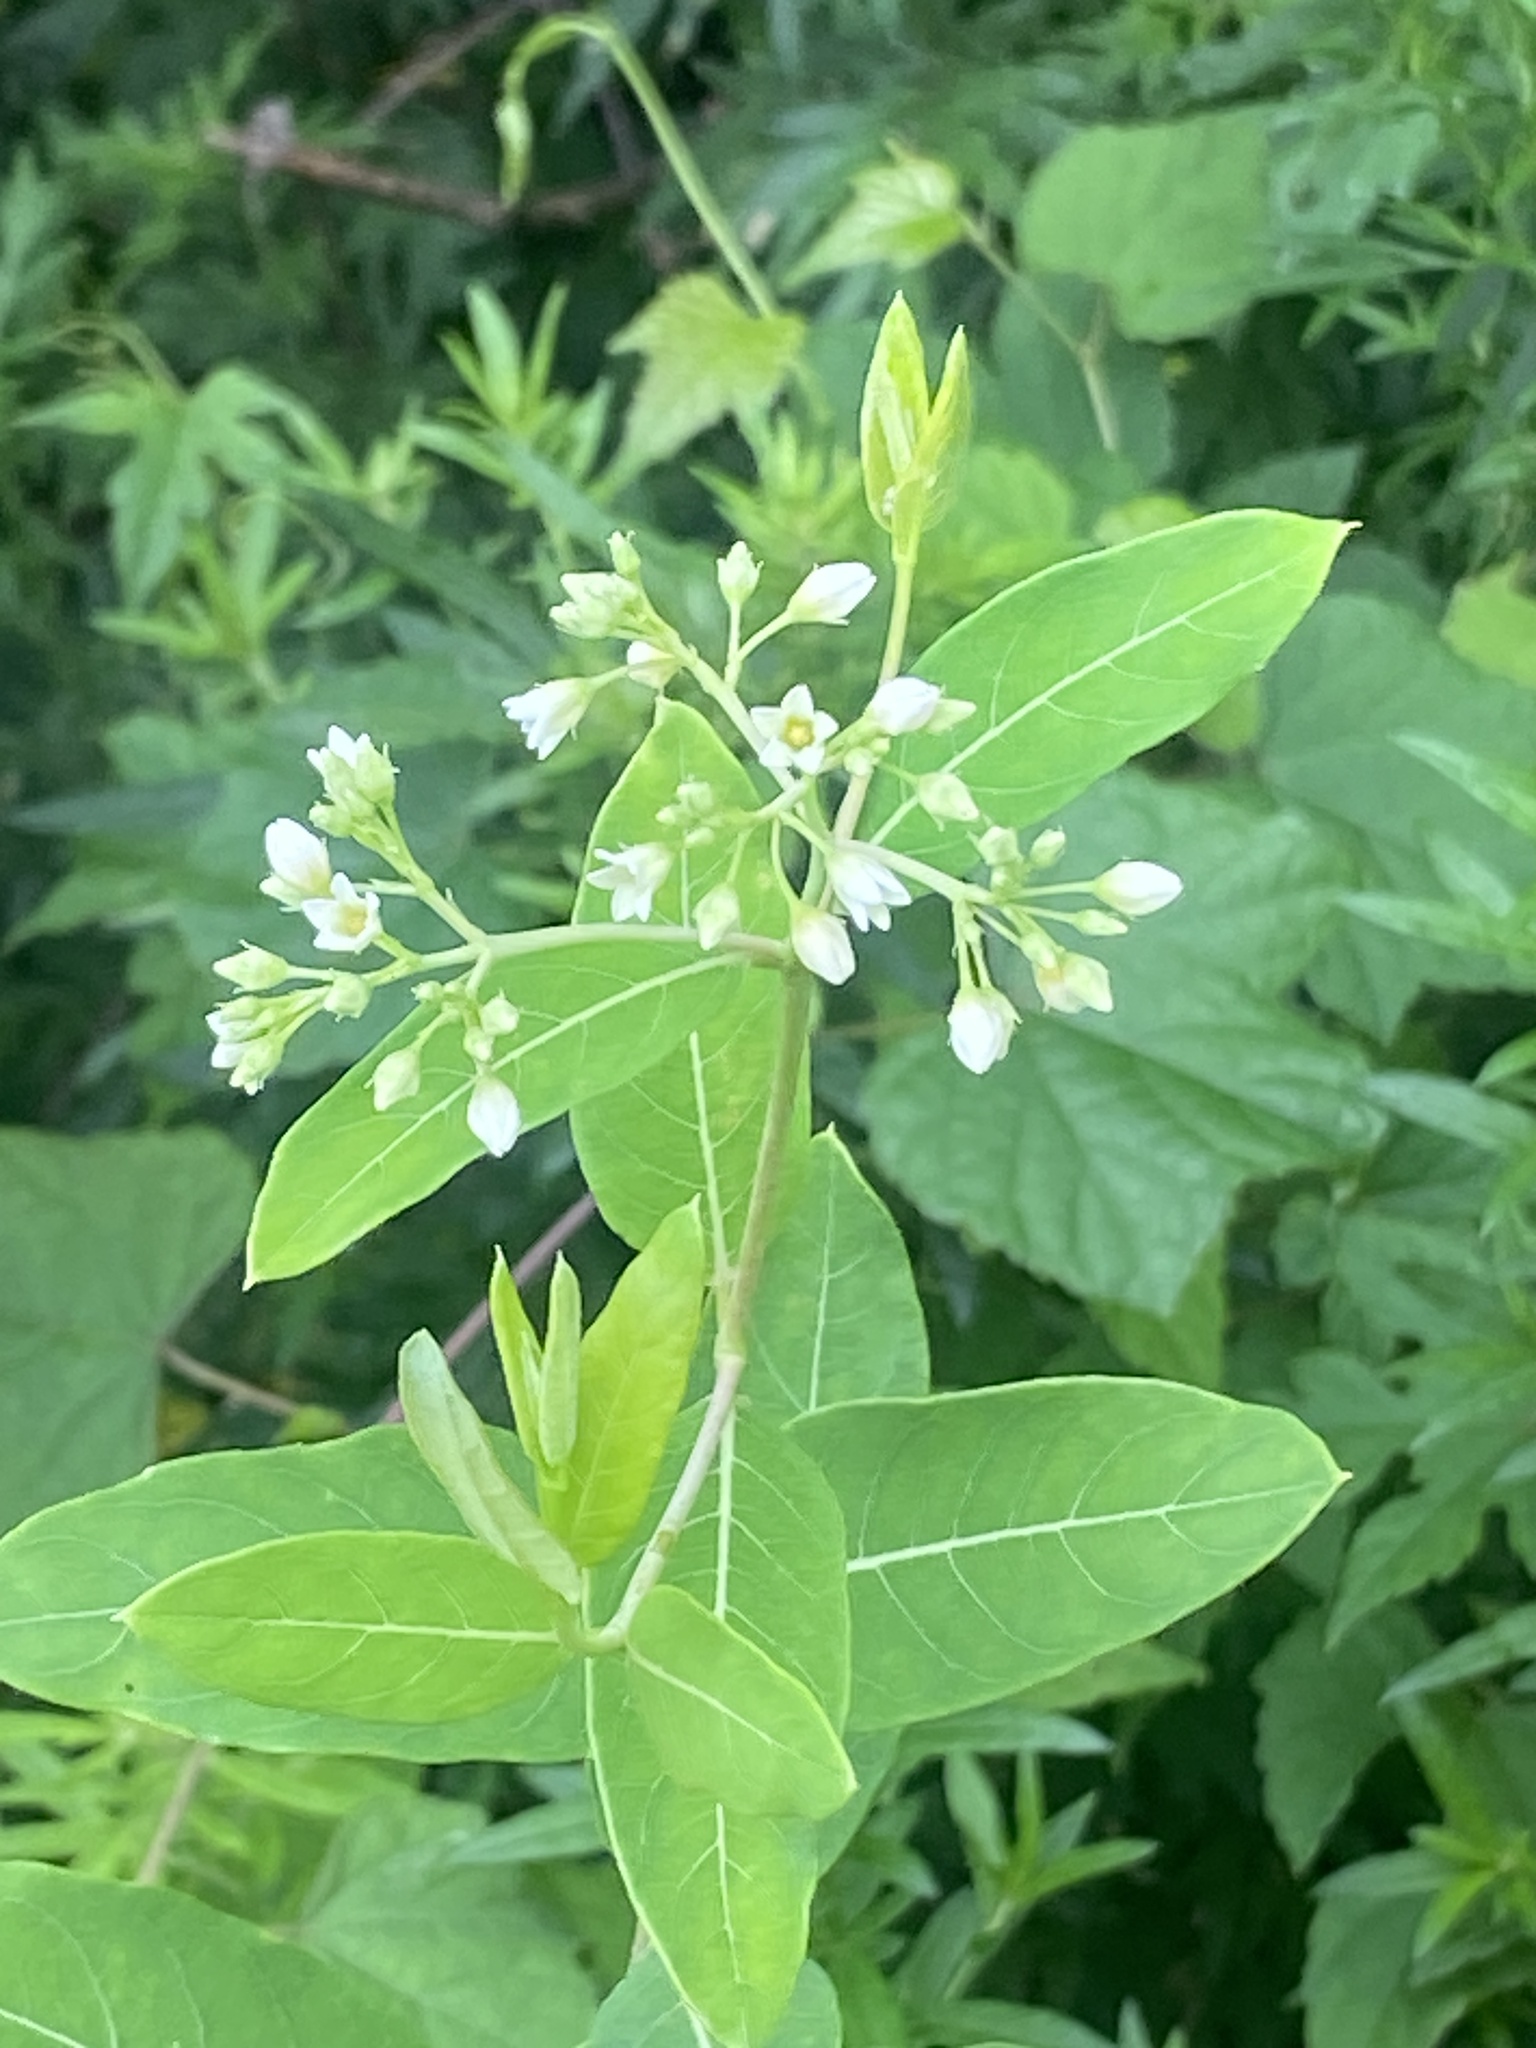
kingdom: Plantae
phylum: Tracheophyta
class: Magnoliopsida
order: Gentianales
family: Apocynaceae
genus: Apocynum
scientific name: Apocynum cannabinum
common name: Hemp dogbane
